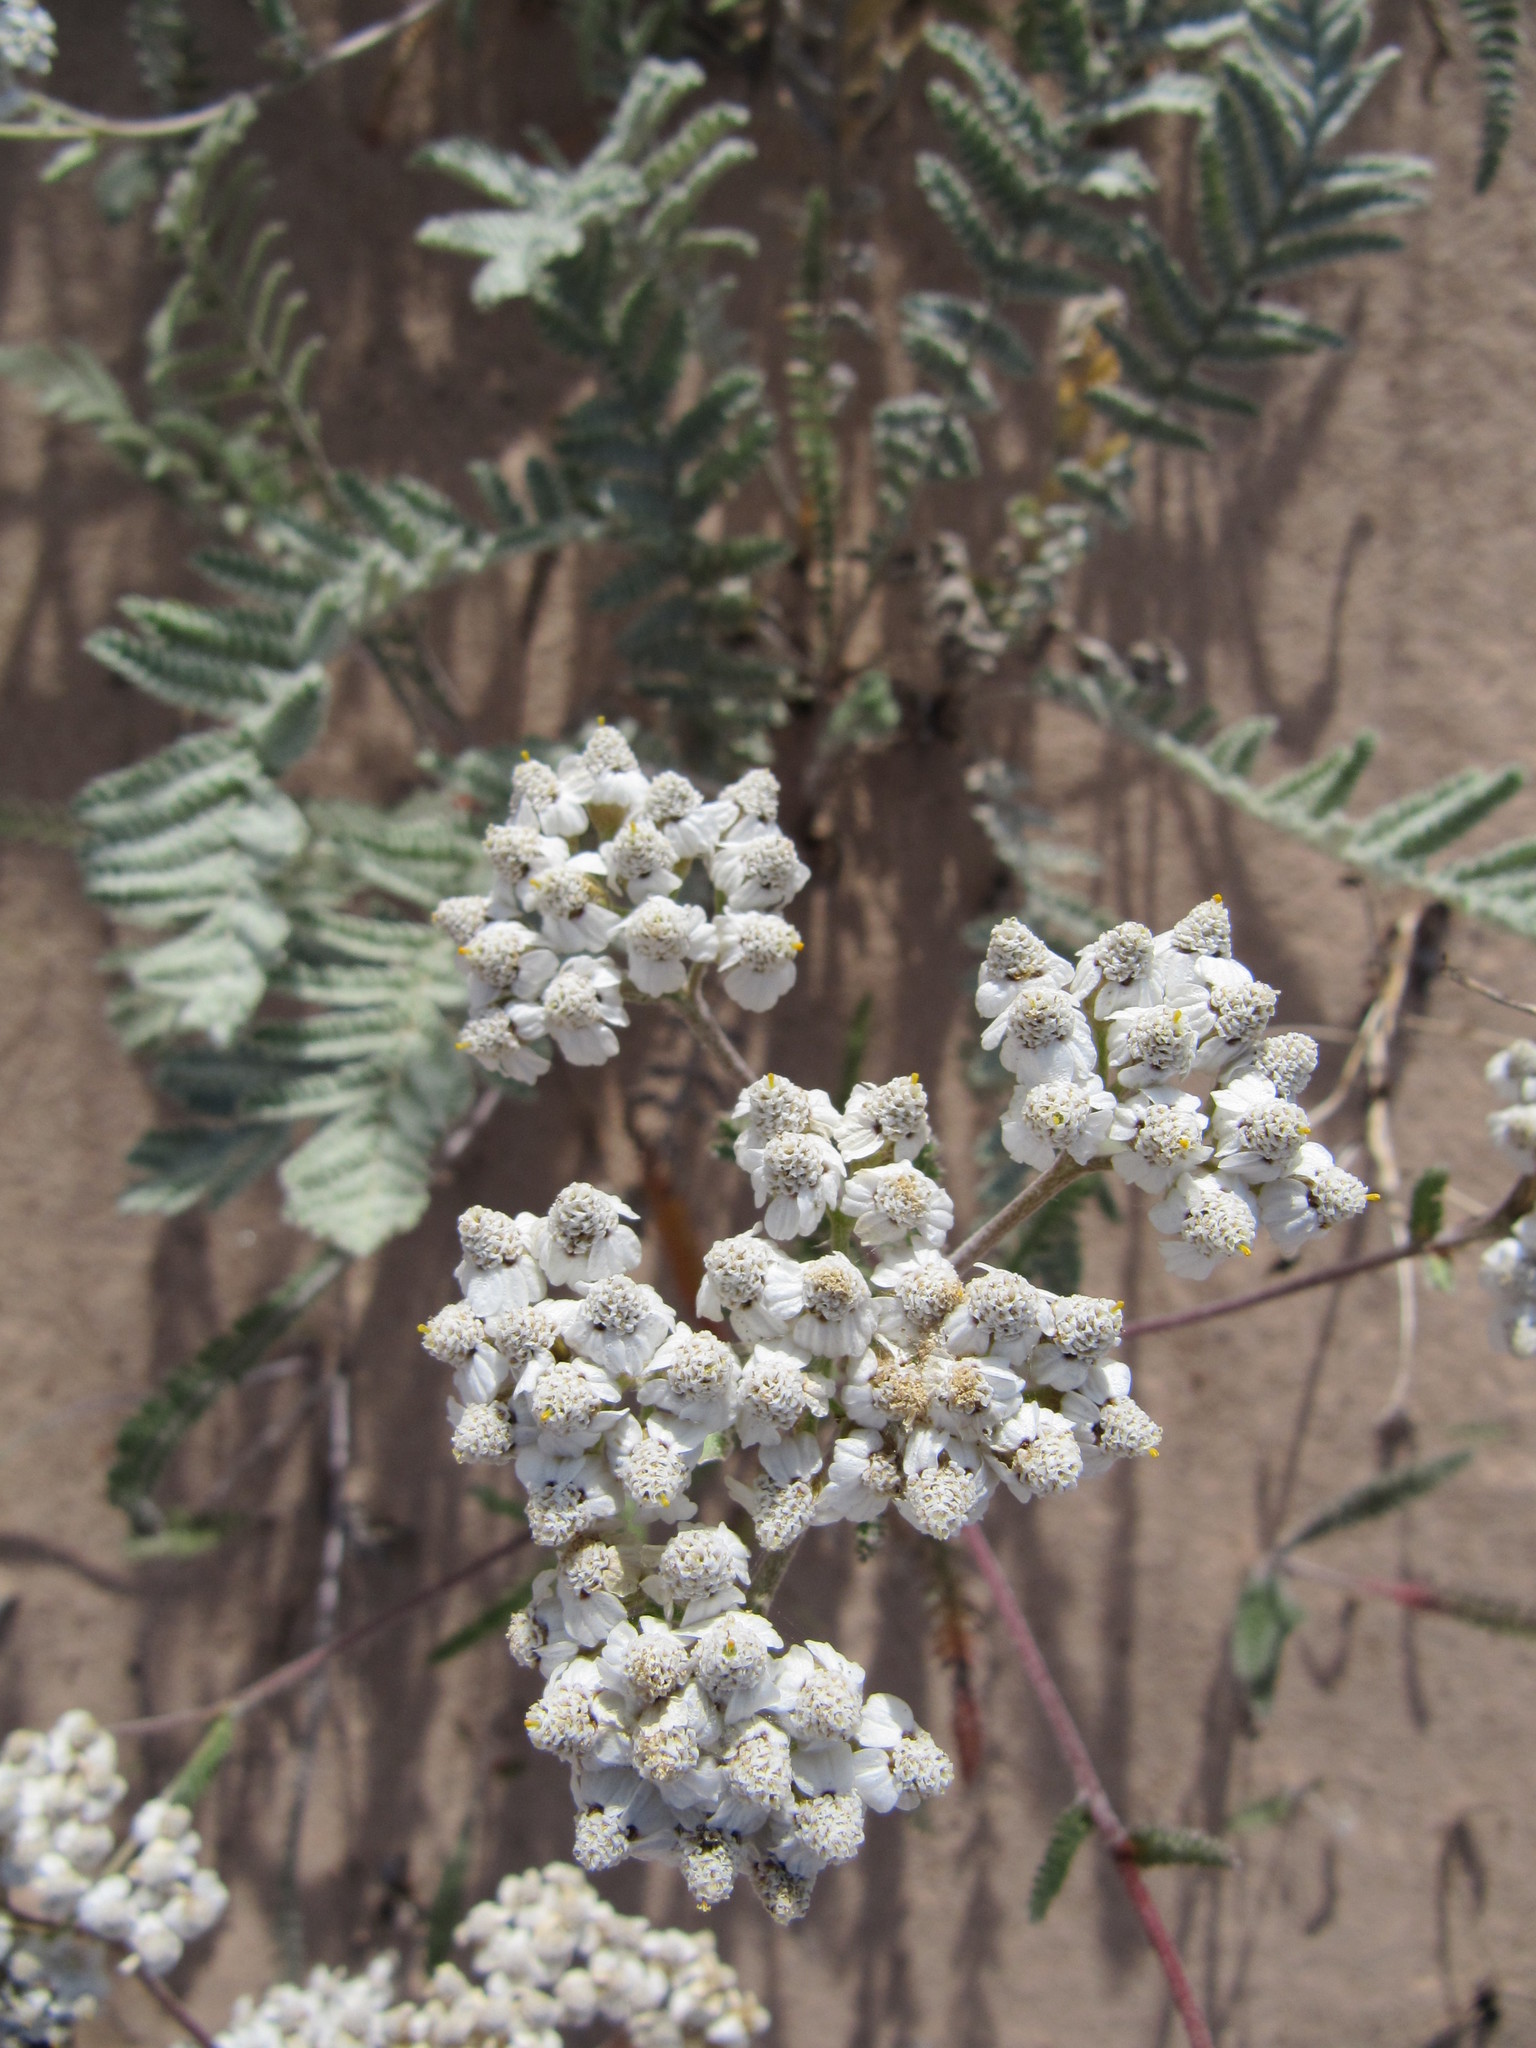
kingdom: Plantae
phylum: Tracheophyta
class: Magnoliopsida
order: Asterales
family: Asteraceae
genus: Achillea
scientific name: Achillea millefolium
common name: Yarrow
